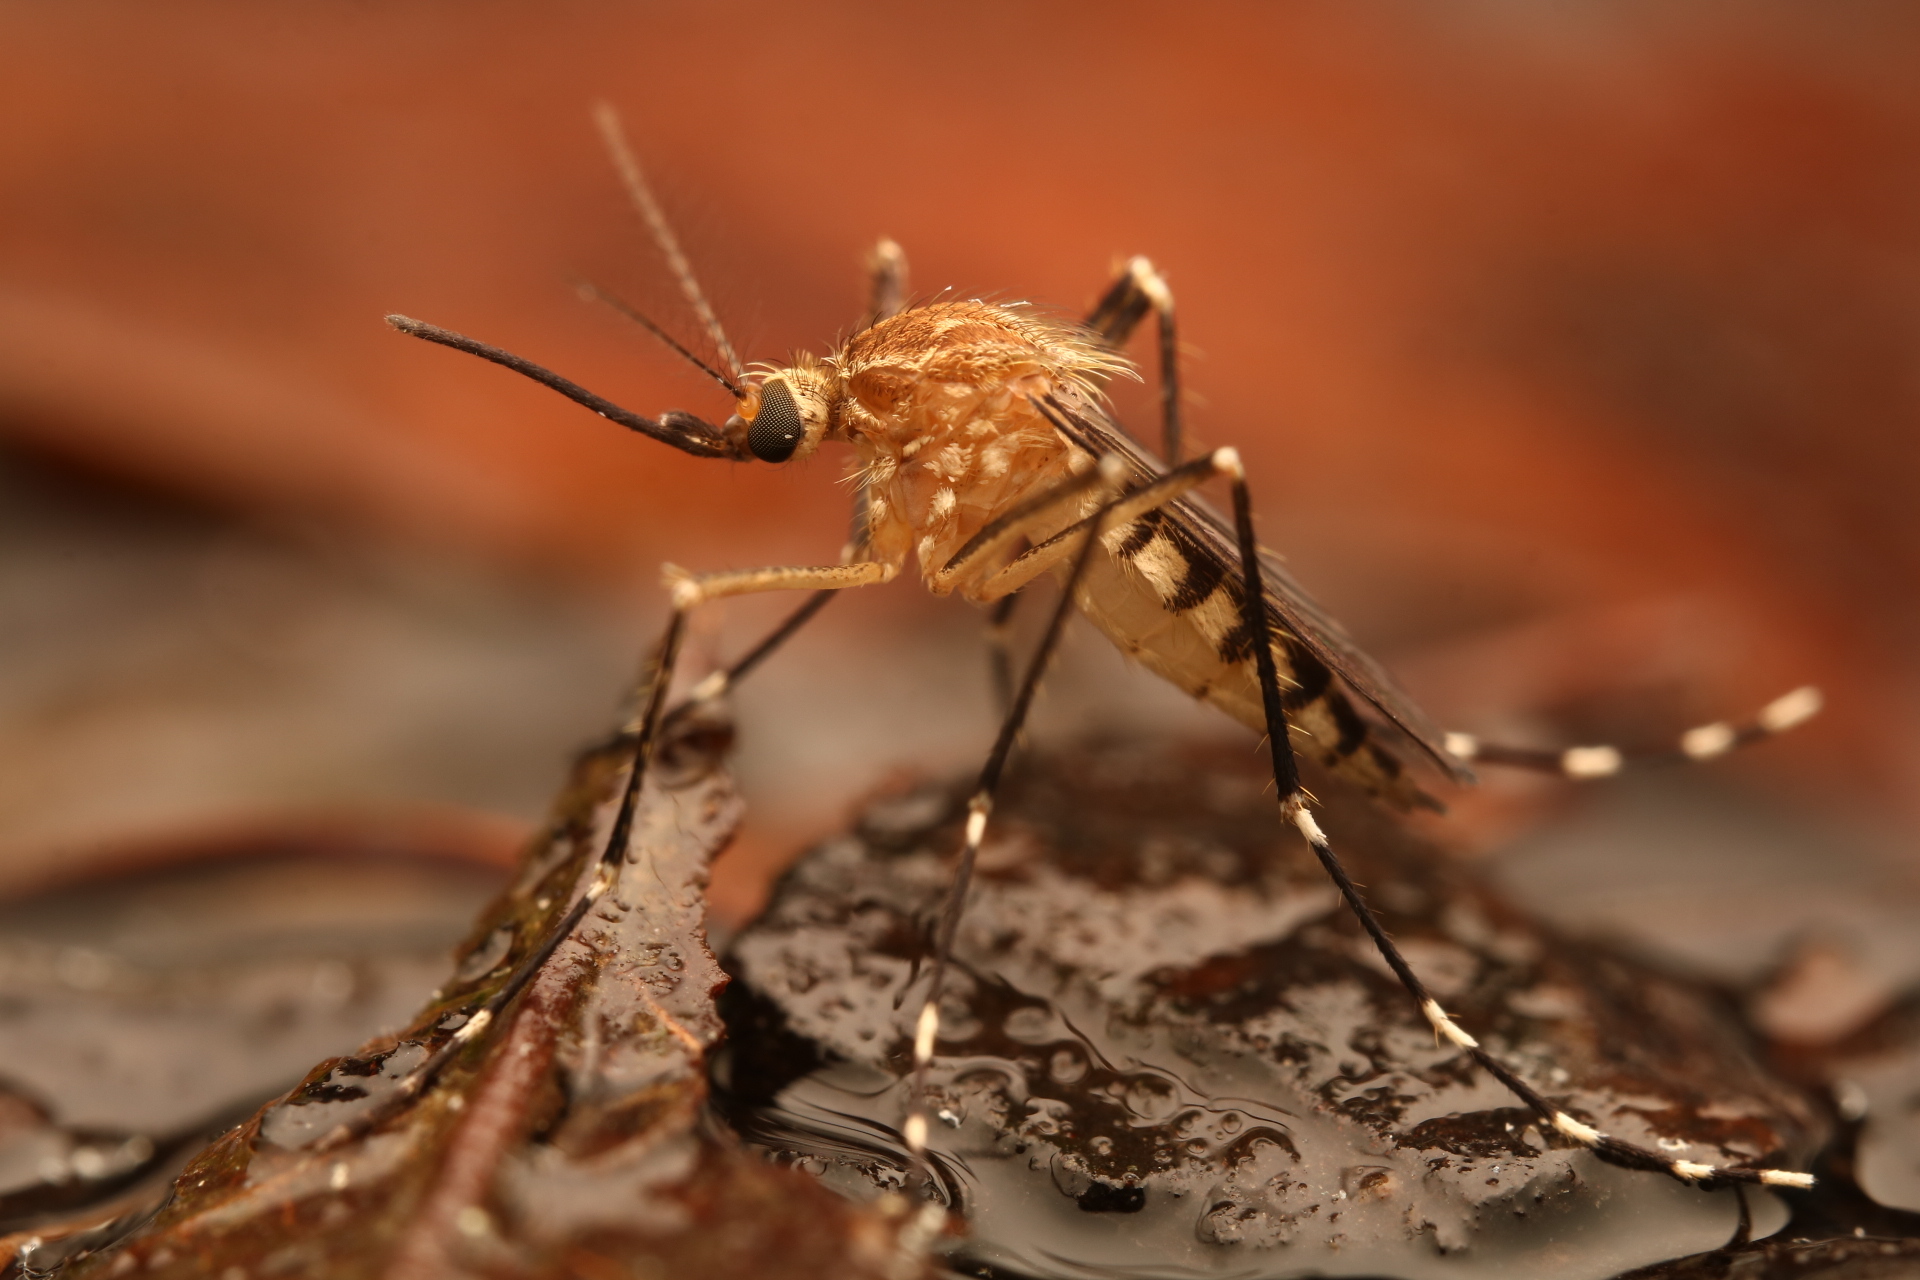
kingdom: Animalia
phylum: Arthropoda
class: Insecta
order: Diptera
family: Culicidae
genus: Aedes
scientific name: Aedes canadensis
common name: Woodland pool mosquito
